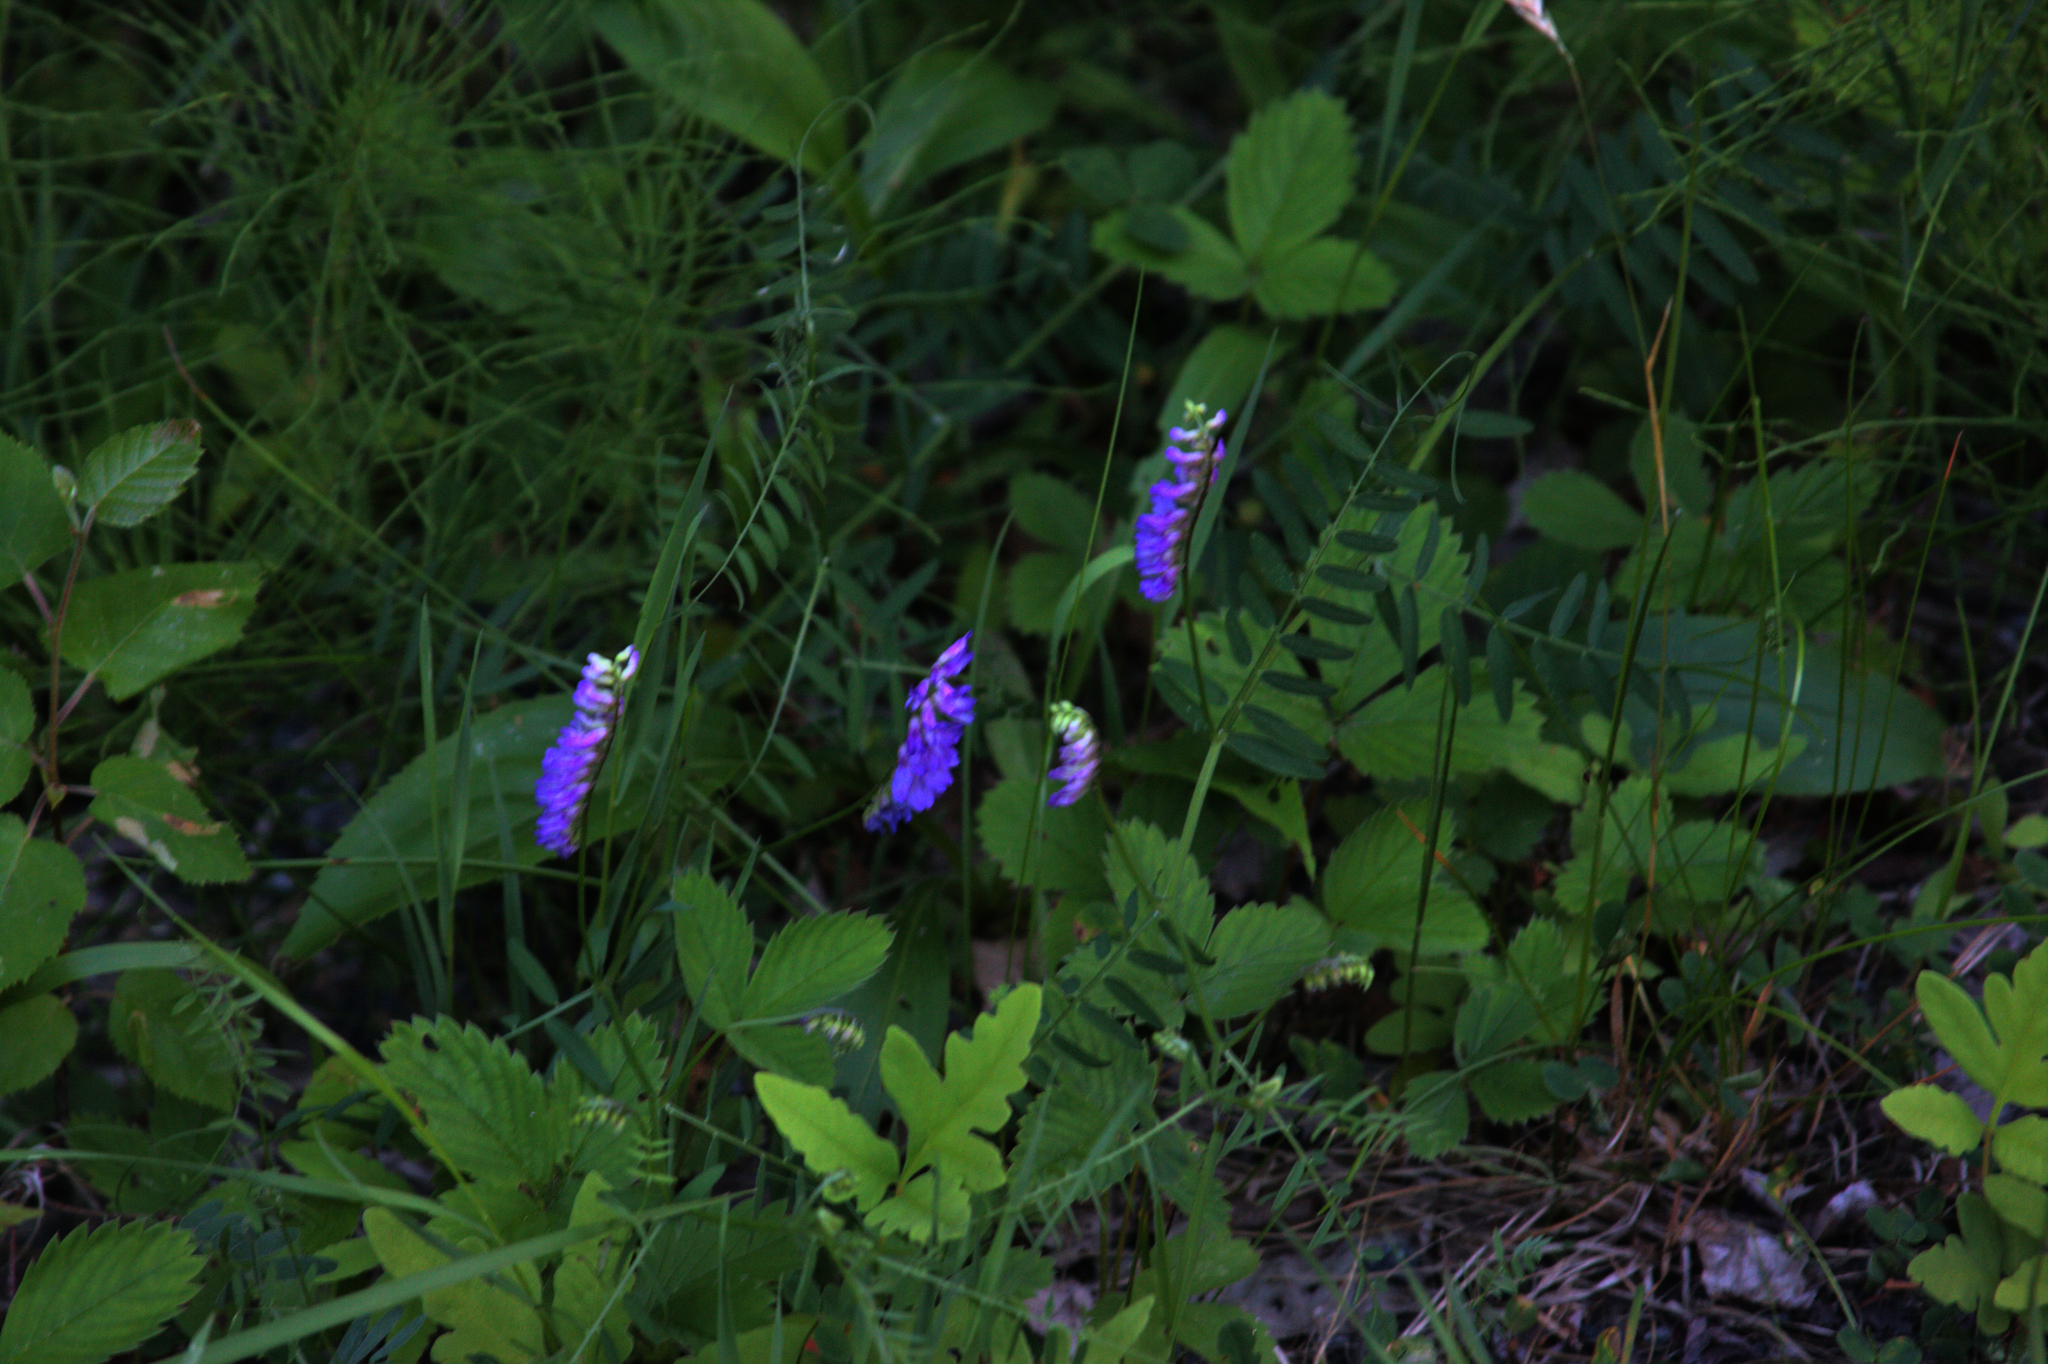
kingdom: Plantae
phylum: Tracheophyta
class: Magnoliopsida
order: Fabales
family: Fabaceae
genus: Vicia
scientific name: Vicia cracca
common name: Bird vetch
